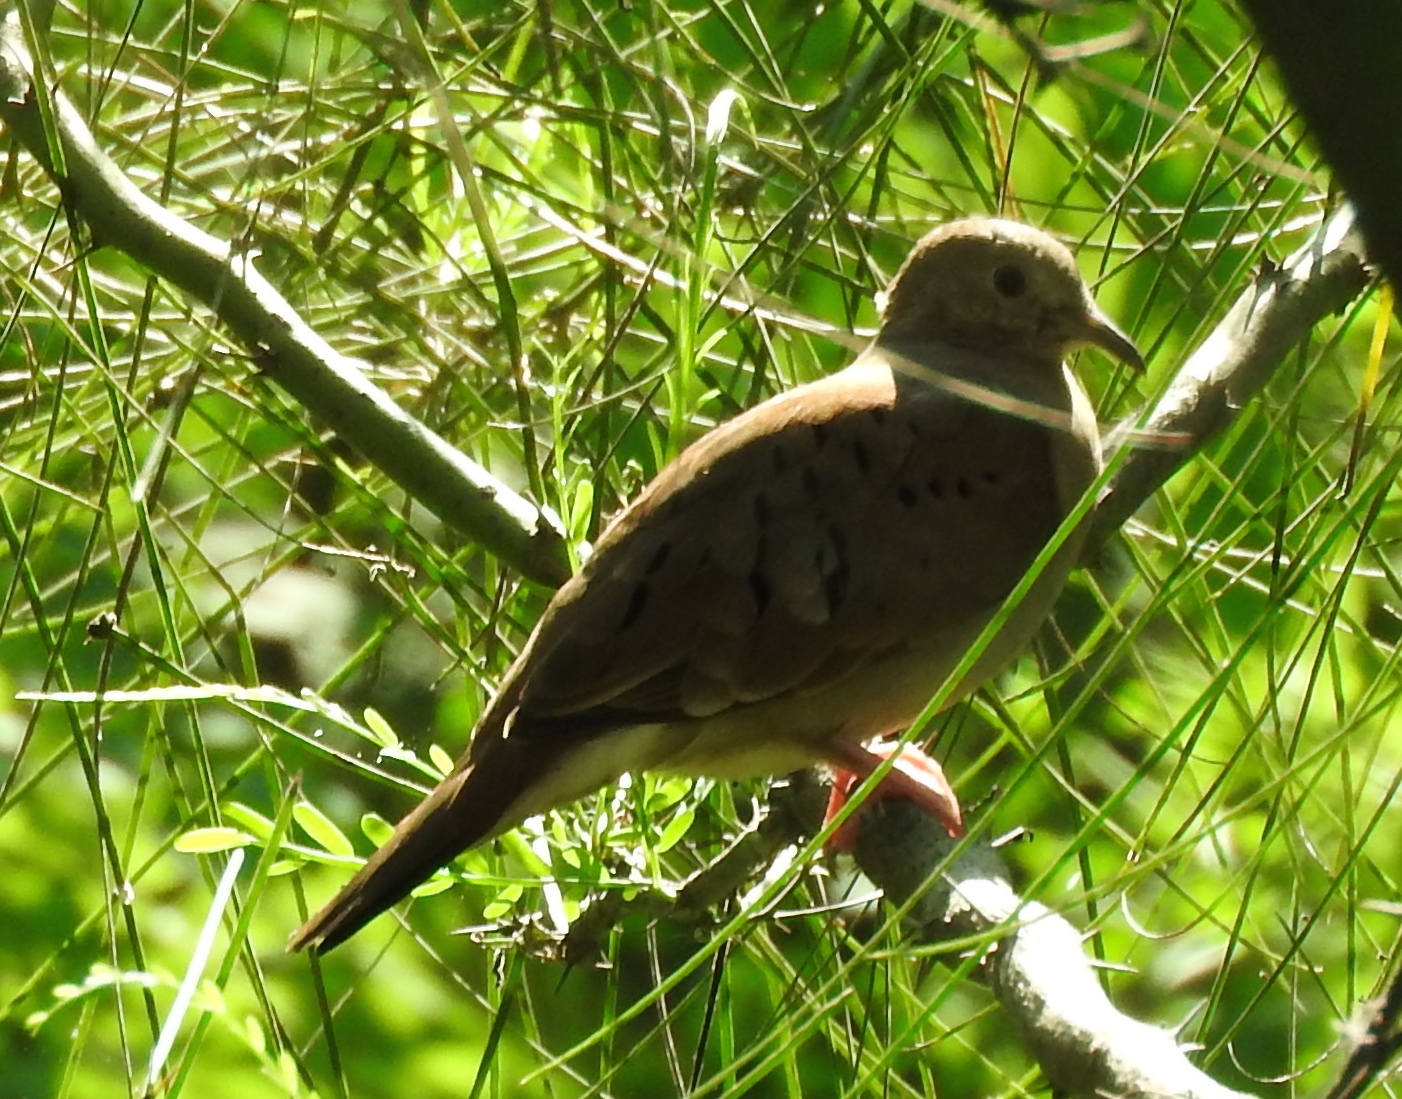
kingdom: Animalia
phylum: Chordata
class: Aves
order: Columbiformes
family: Columbidae
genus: Columbina
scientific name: Columbina talpacoti
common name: Ruddy ground dove
